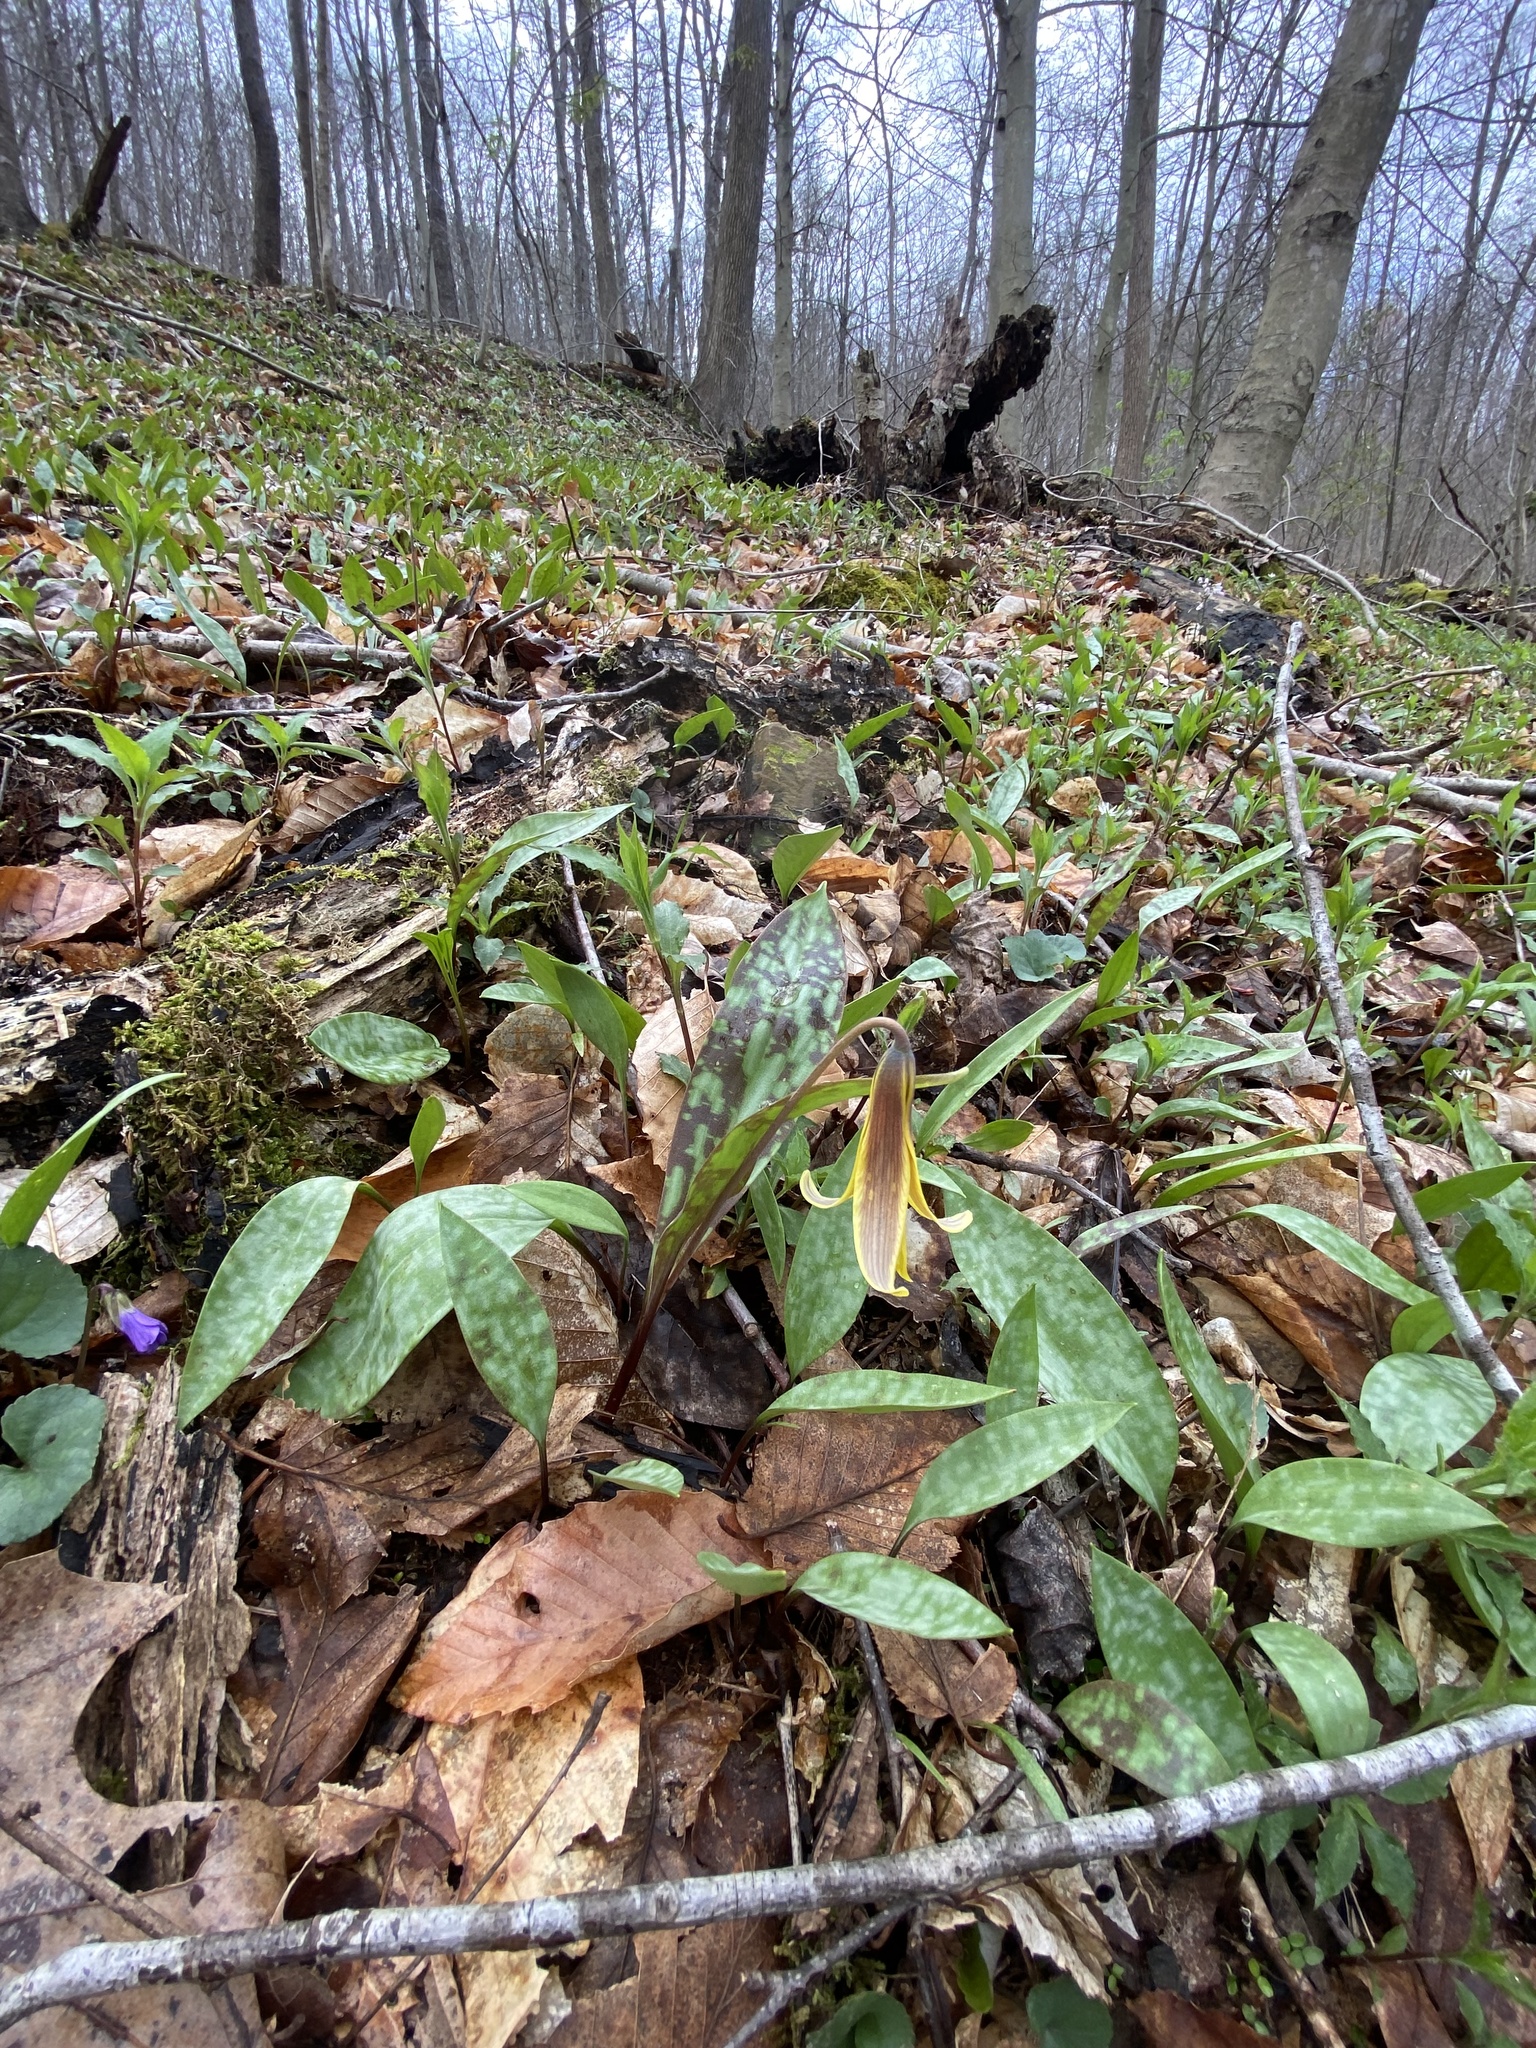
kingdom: Plantae
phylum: Tracheophyta
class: Liliopsida
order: Liliales
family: Liliaceae
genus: Erythronium
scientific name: Erythronium americanum
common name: Yellow adder's-tongue
